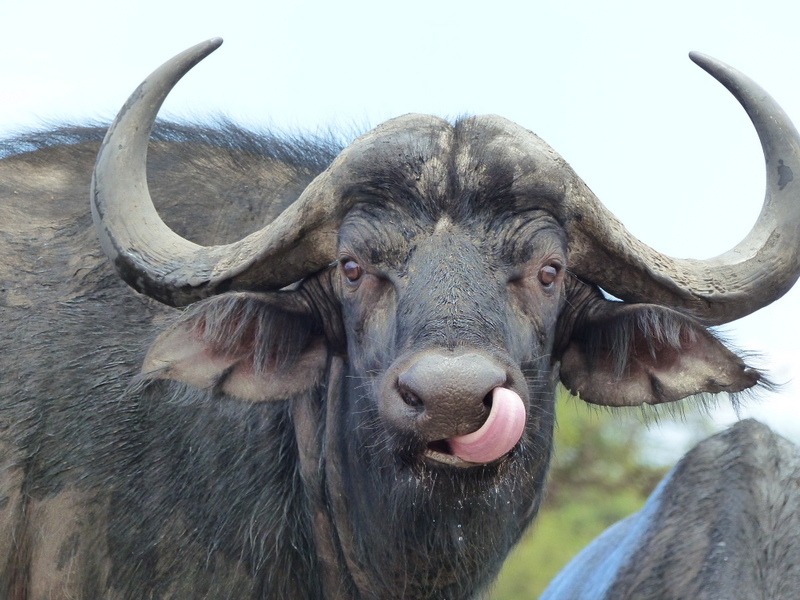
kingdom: Animalia
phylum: Chordata
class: Mammalia
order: Artiodactyla
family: Bovidae
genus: Syncerus
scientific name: Syncerus caffer
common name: African buffalo
